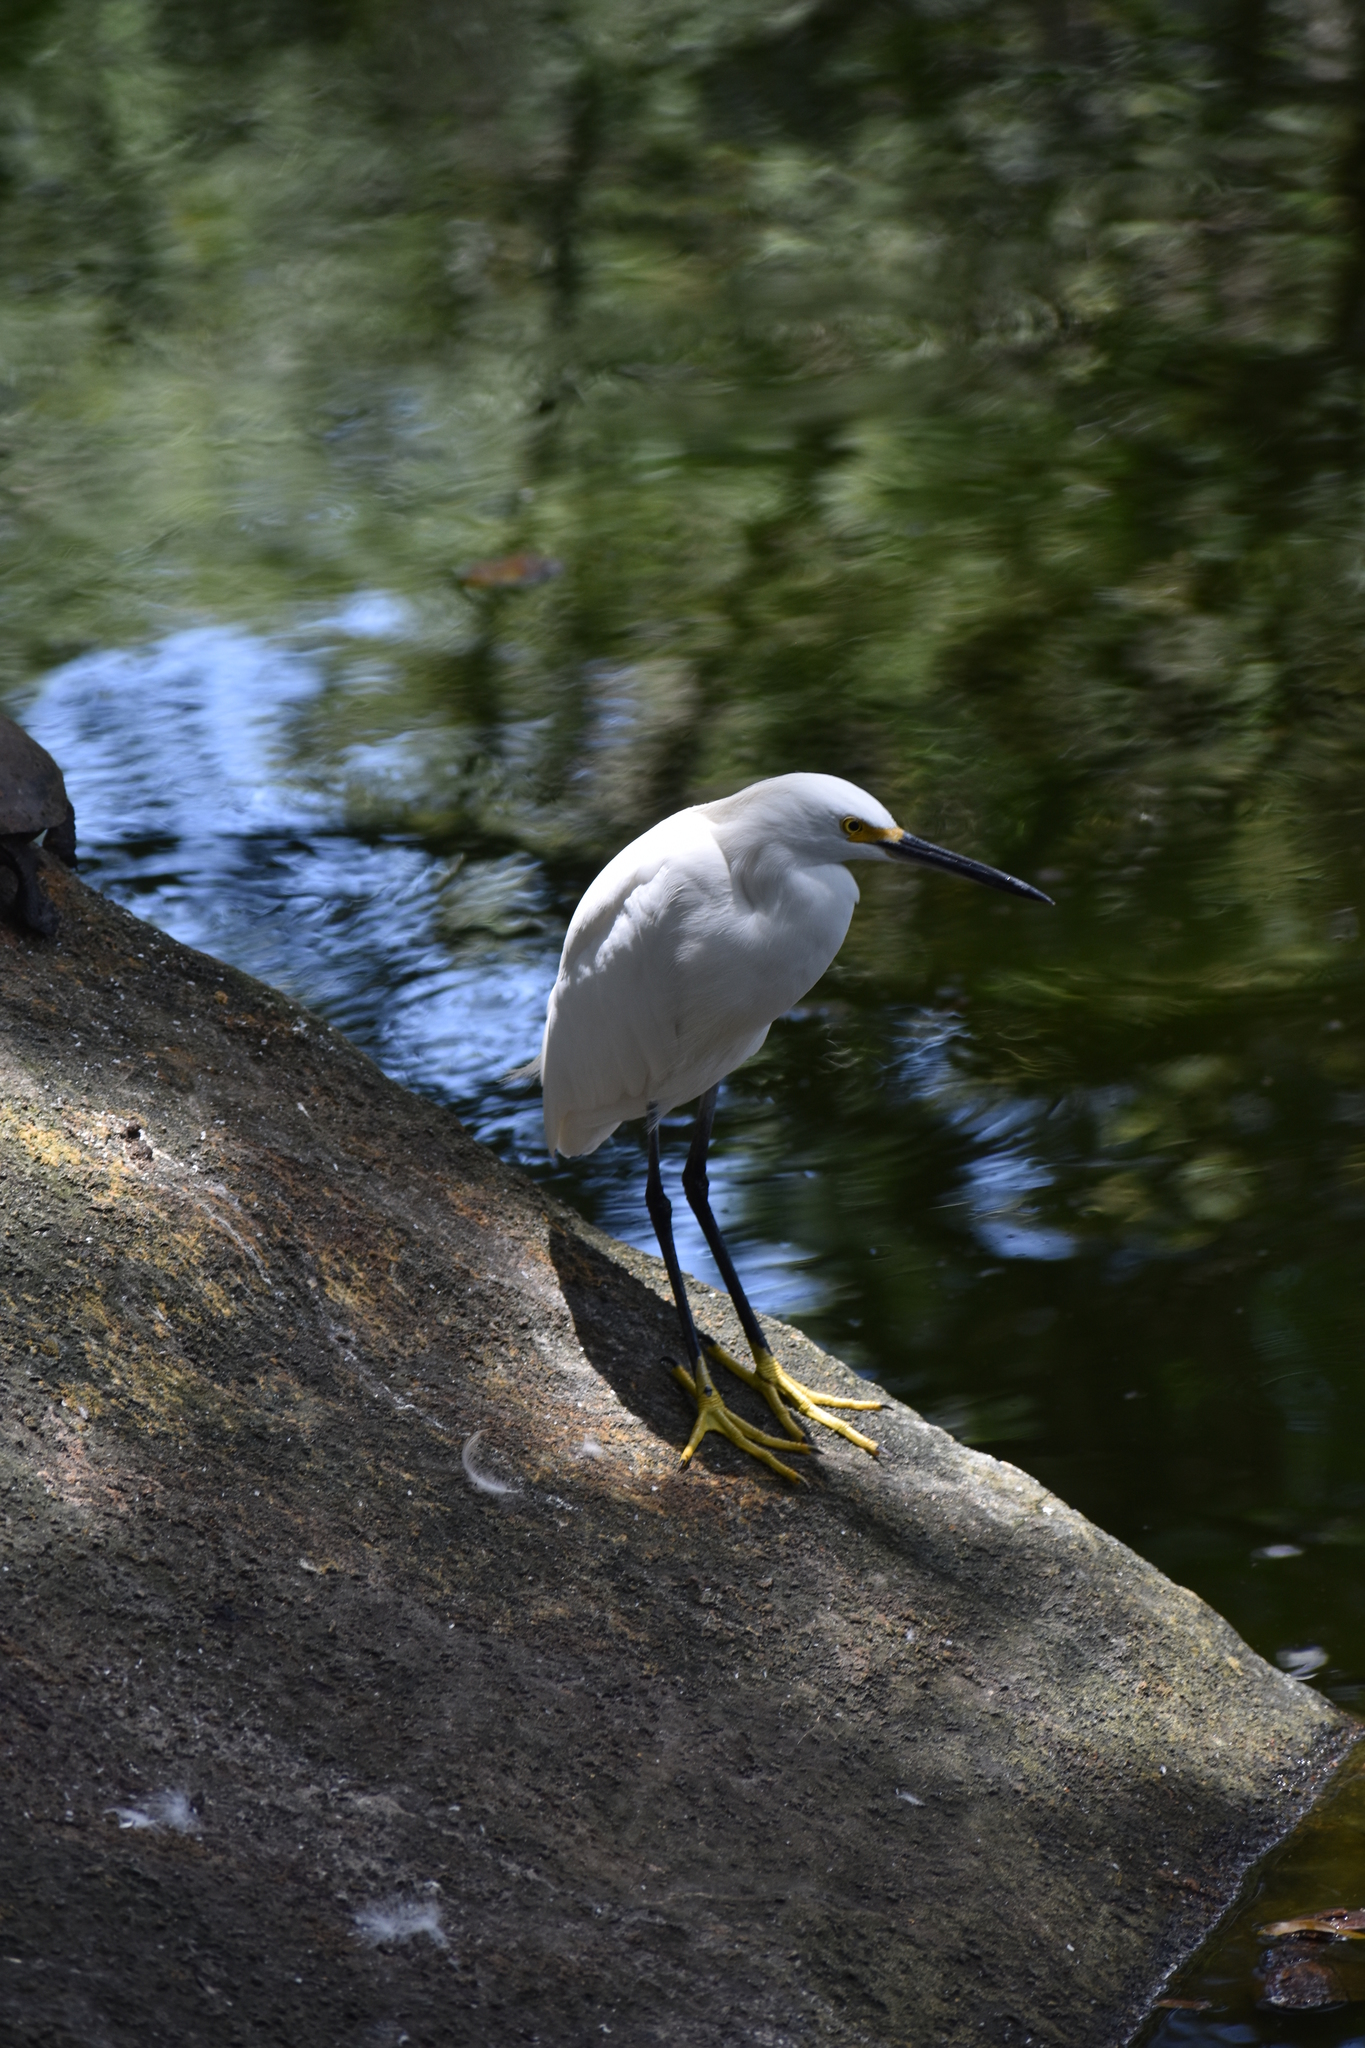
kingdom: Animalia
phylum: Chordata
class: Aves
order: Pelecaniformes
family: Ardeidae
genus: Egretta
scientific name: Egretta thula
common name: Snowy egret
